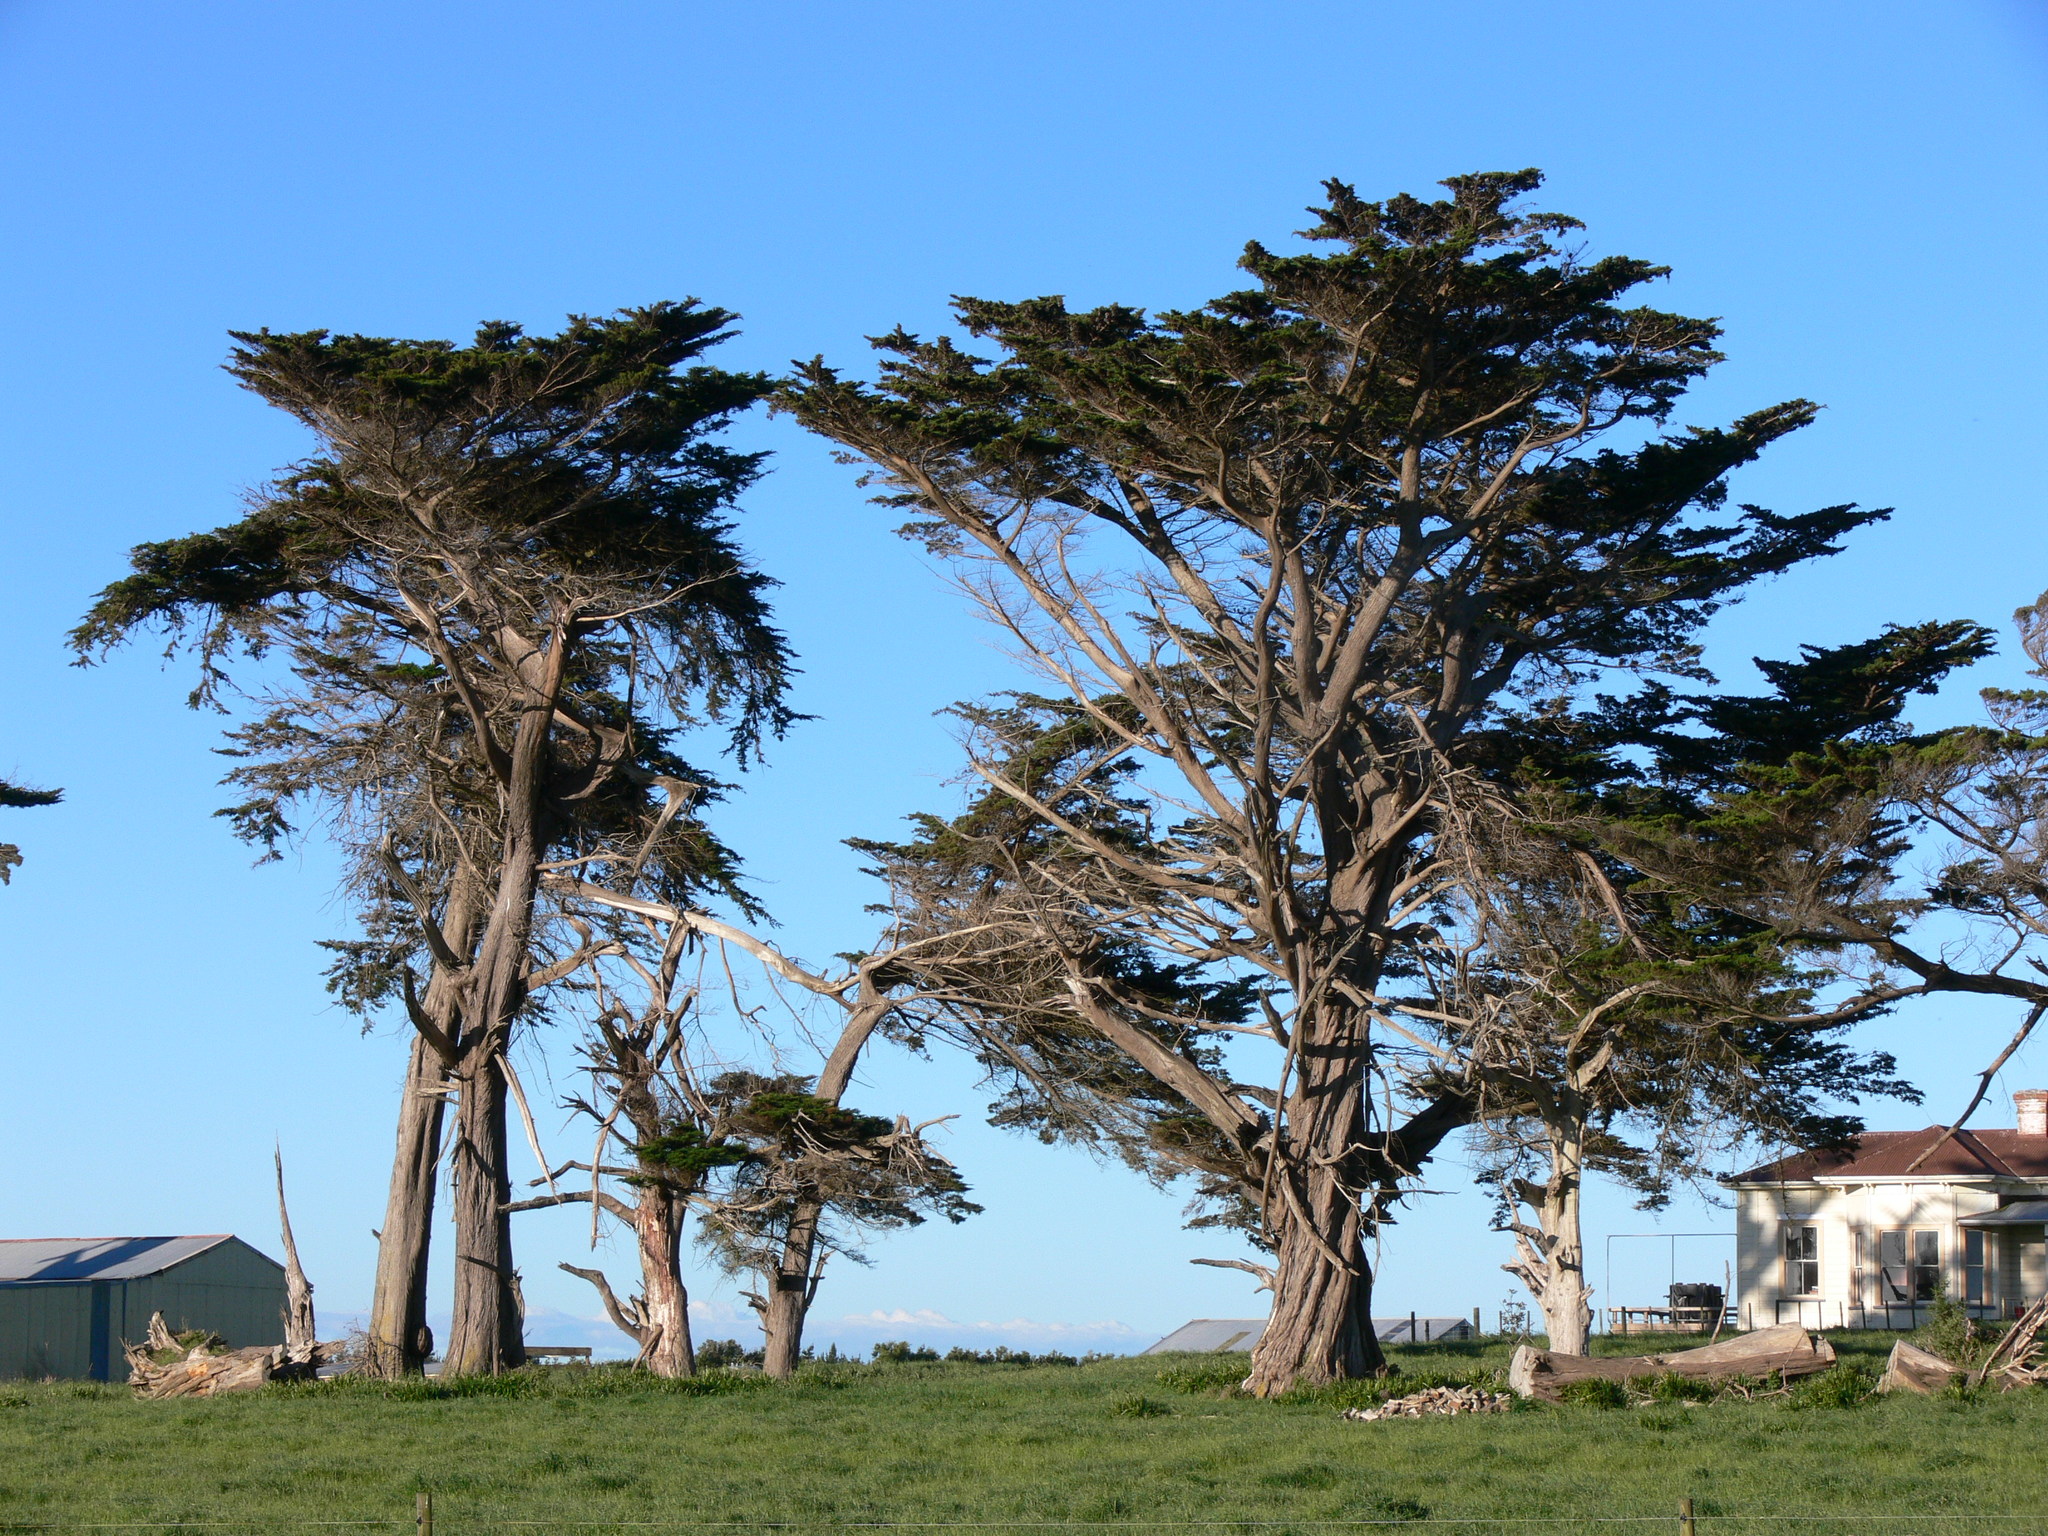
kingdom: Plantae
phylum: Tracheophyta
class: Pinopsida
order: Pinales
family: Cupressaceae
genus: Cupressus
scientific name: Cupressus macrocarpa
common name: Monterey cypress
